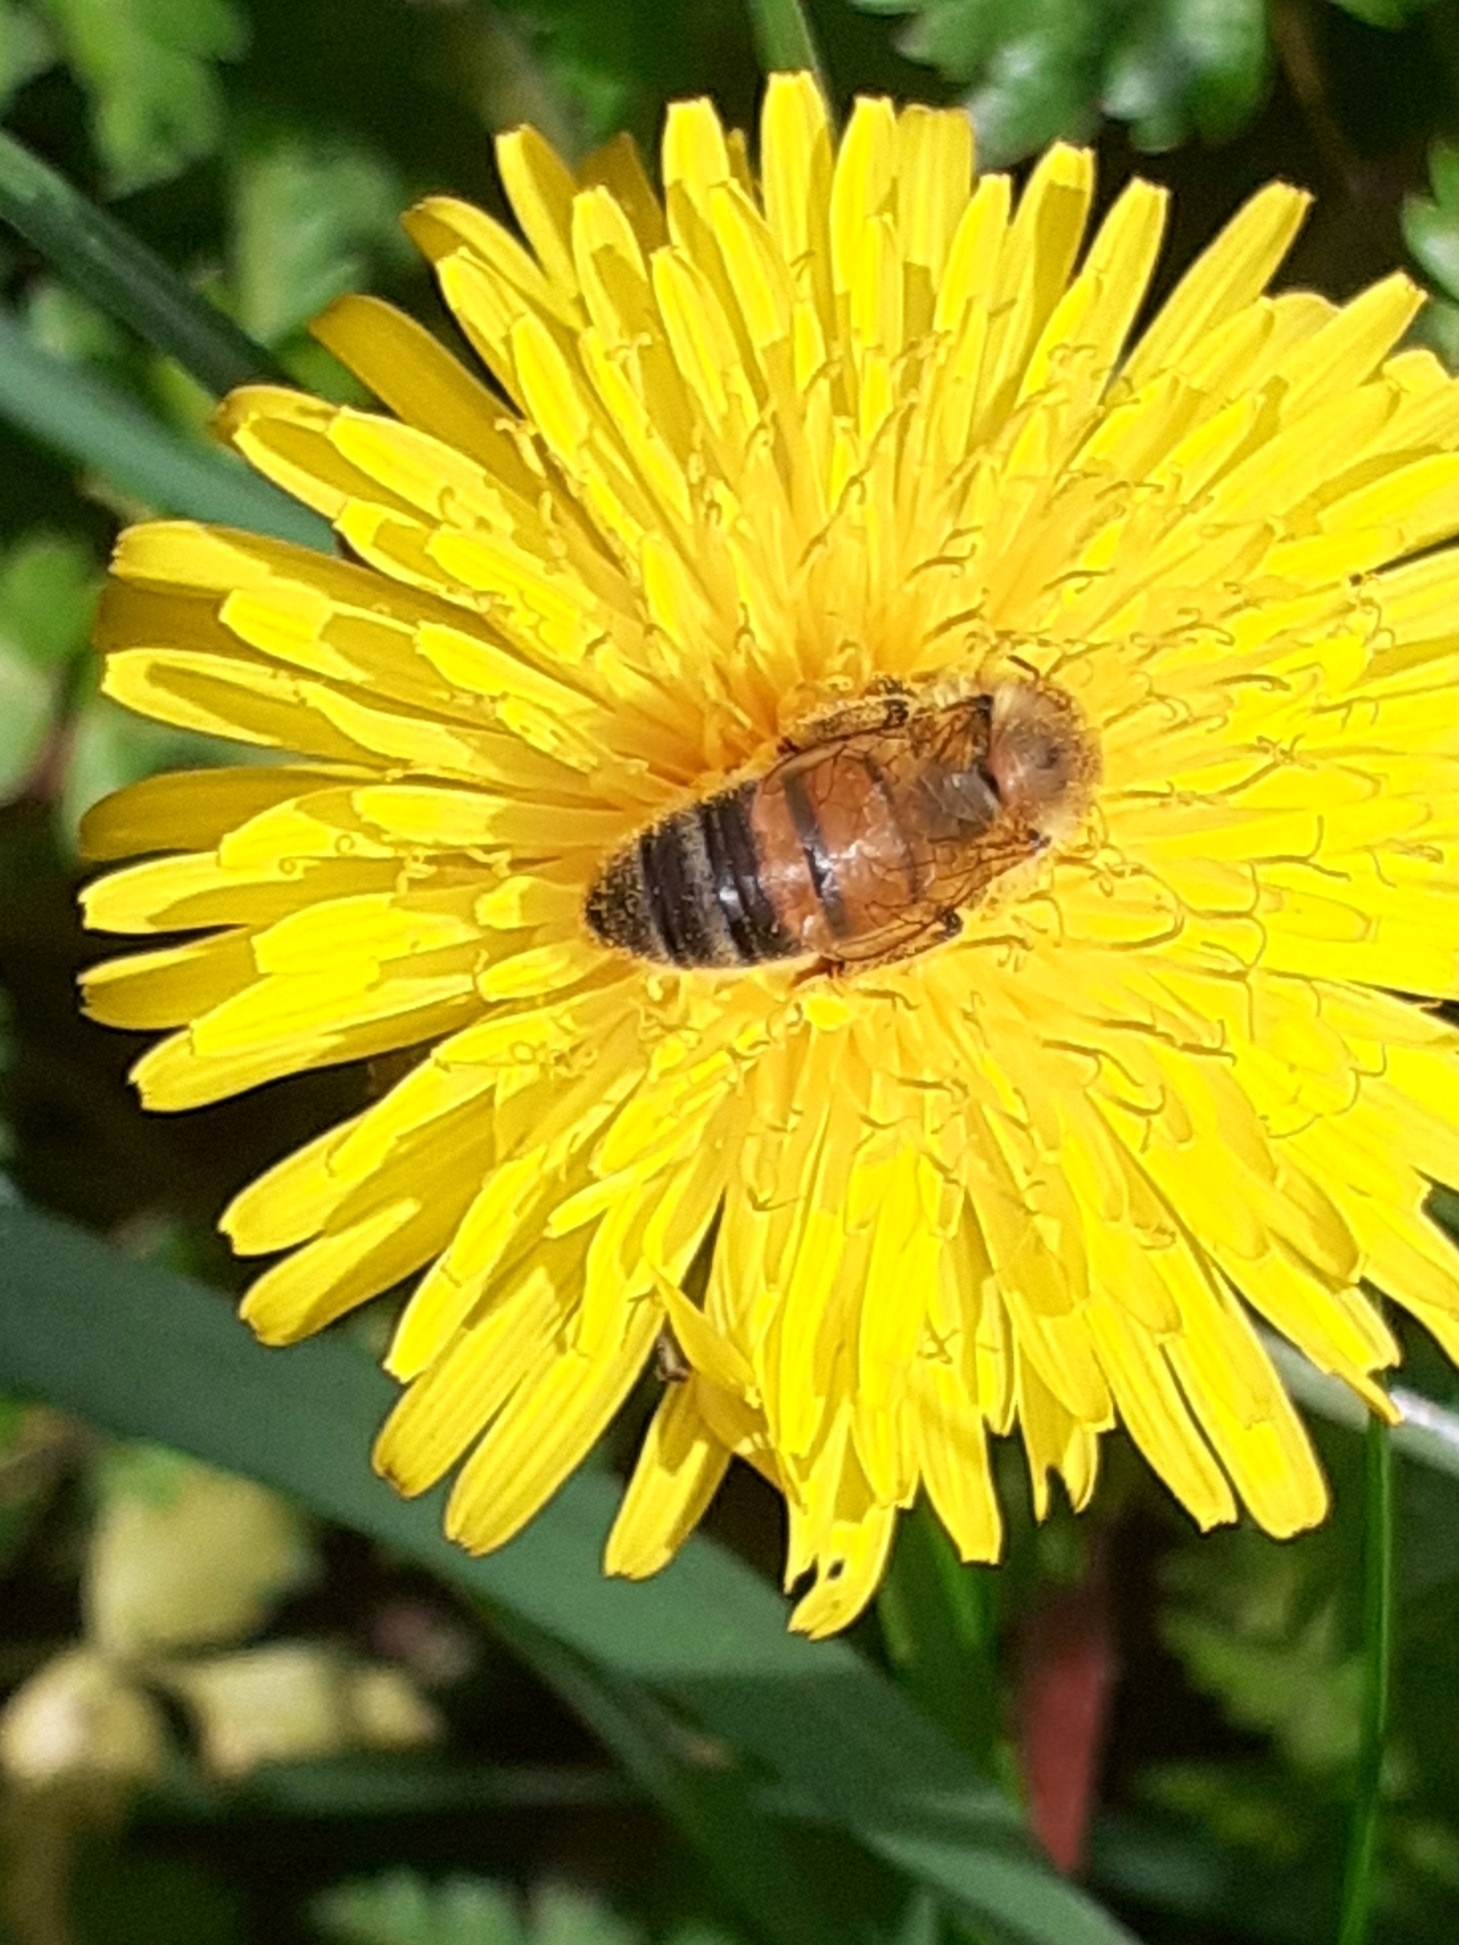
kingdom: Animalia
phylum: Arthropoda
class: Insecta
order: Hymenoptera
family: Apidae
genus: Apis
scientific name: Apis mellifera
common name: Honey bee
